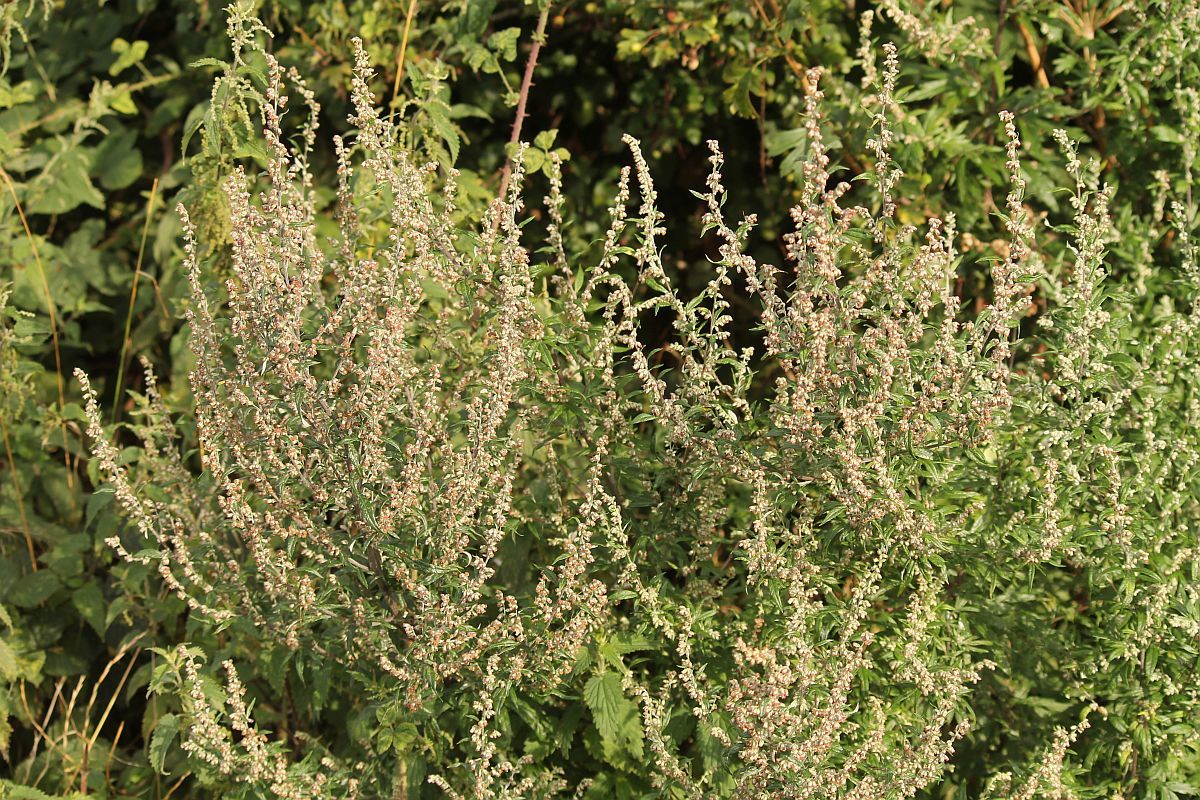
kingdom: Plantae
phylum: Tracheophyta
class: Magnoliopsida
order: Asterales
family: Asteraceae
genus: Artemisia
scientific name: Artemisia vulgaris
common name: Mugwort
